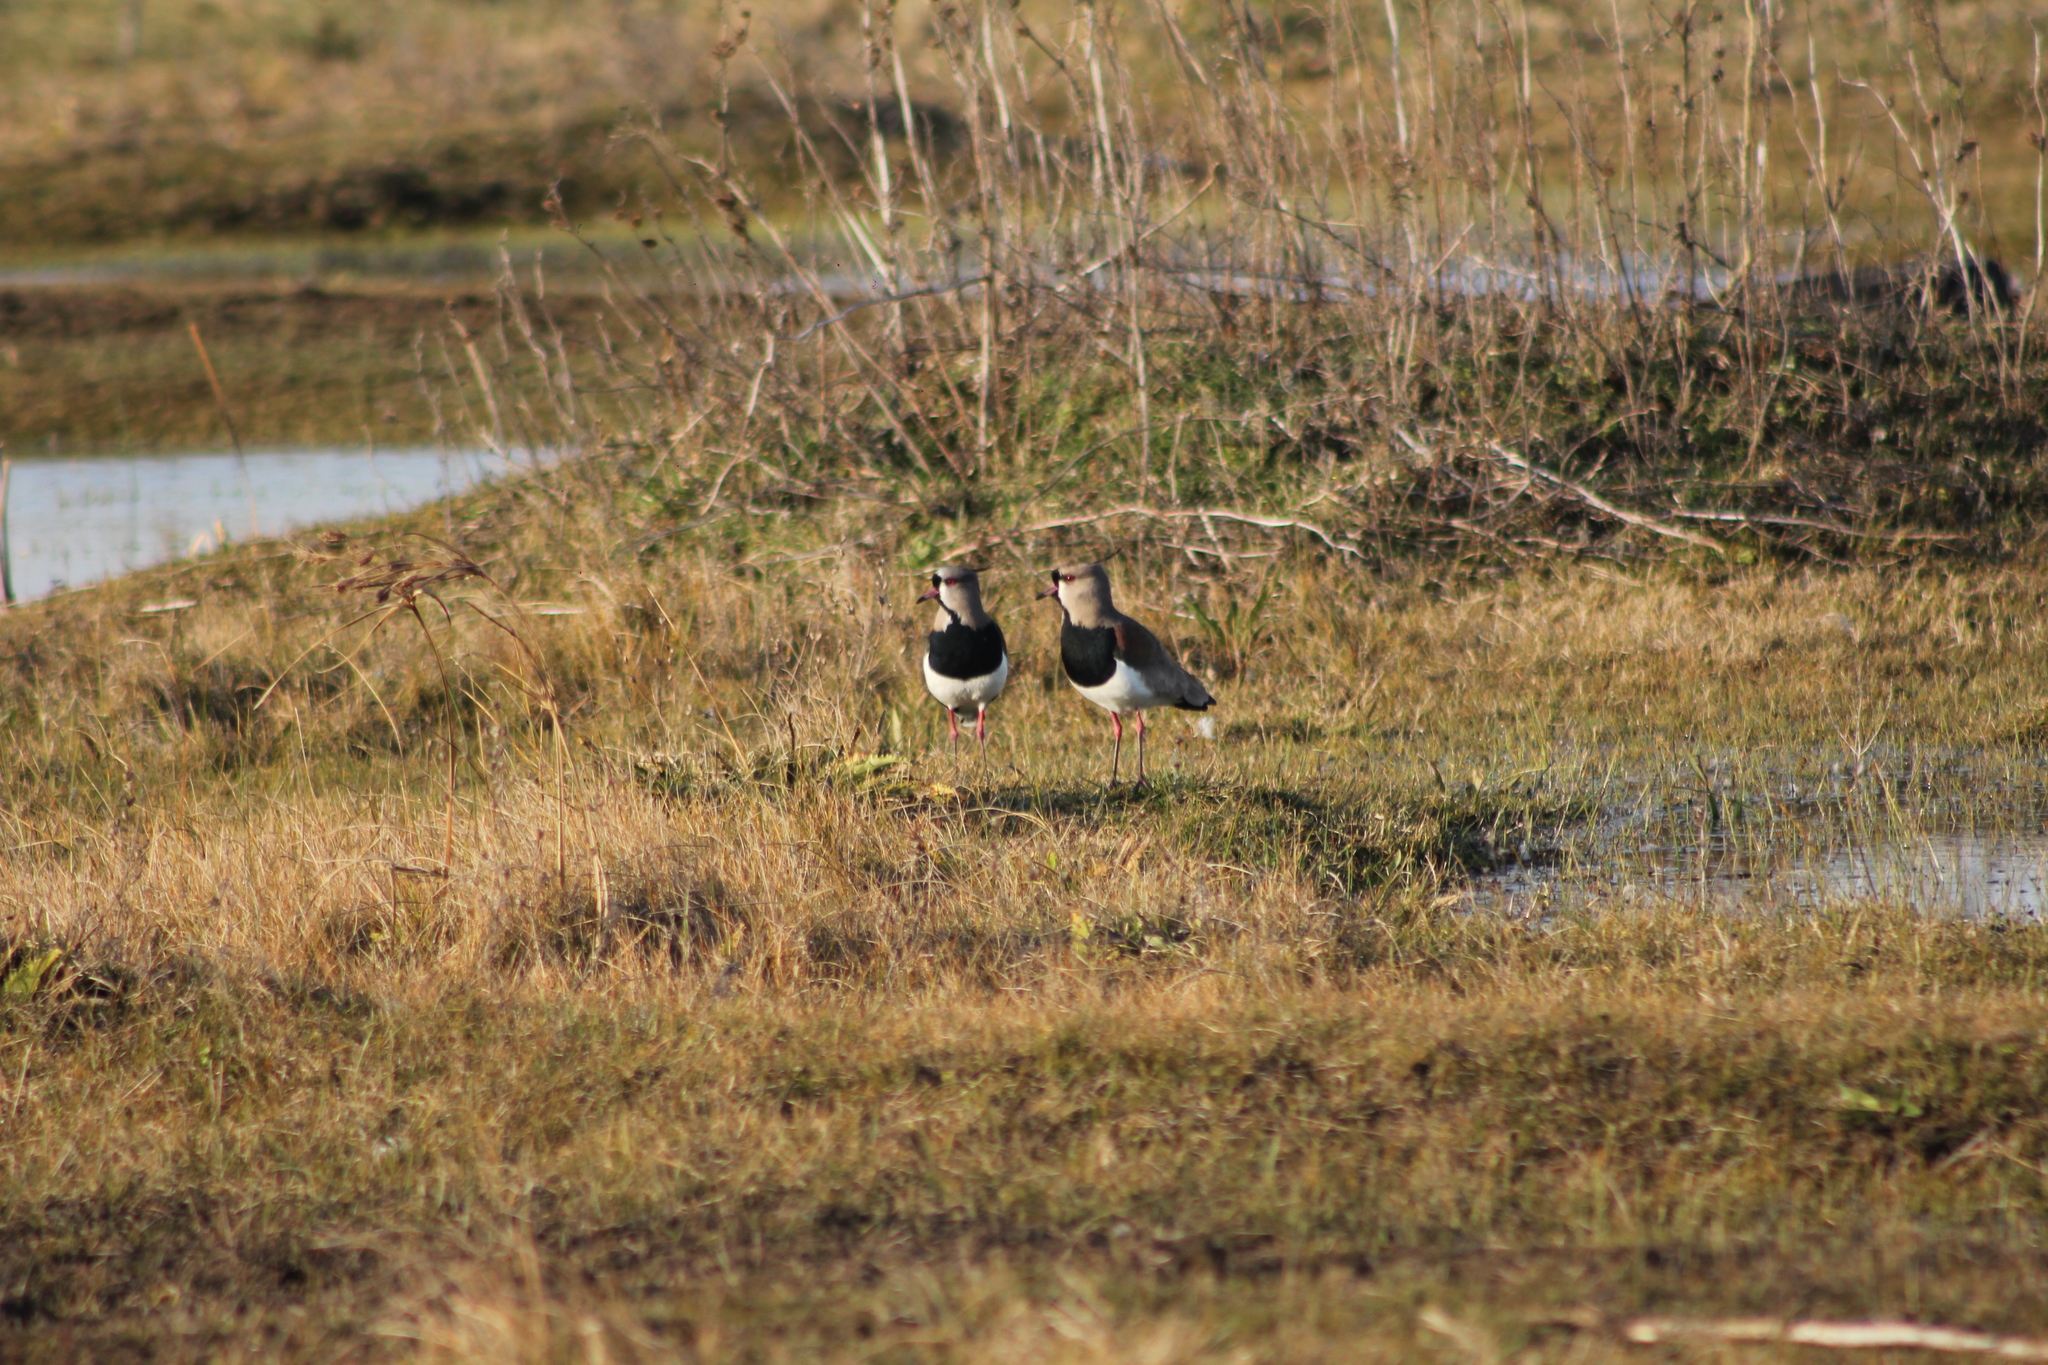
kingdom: Animalia
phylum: Chordata
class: Aves
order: Charadriiformes
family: Charadriidae
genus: Vanellus
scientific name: Vanellus chilensis
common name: Southern lapwing
